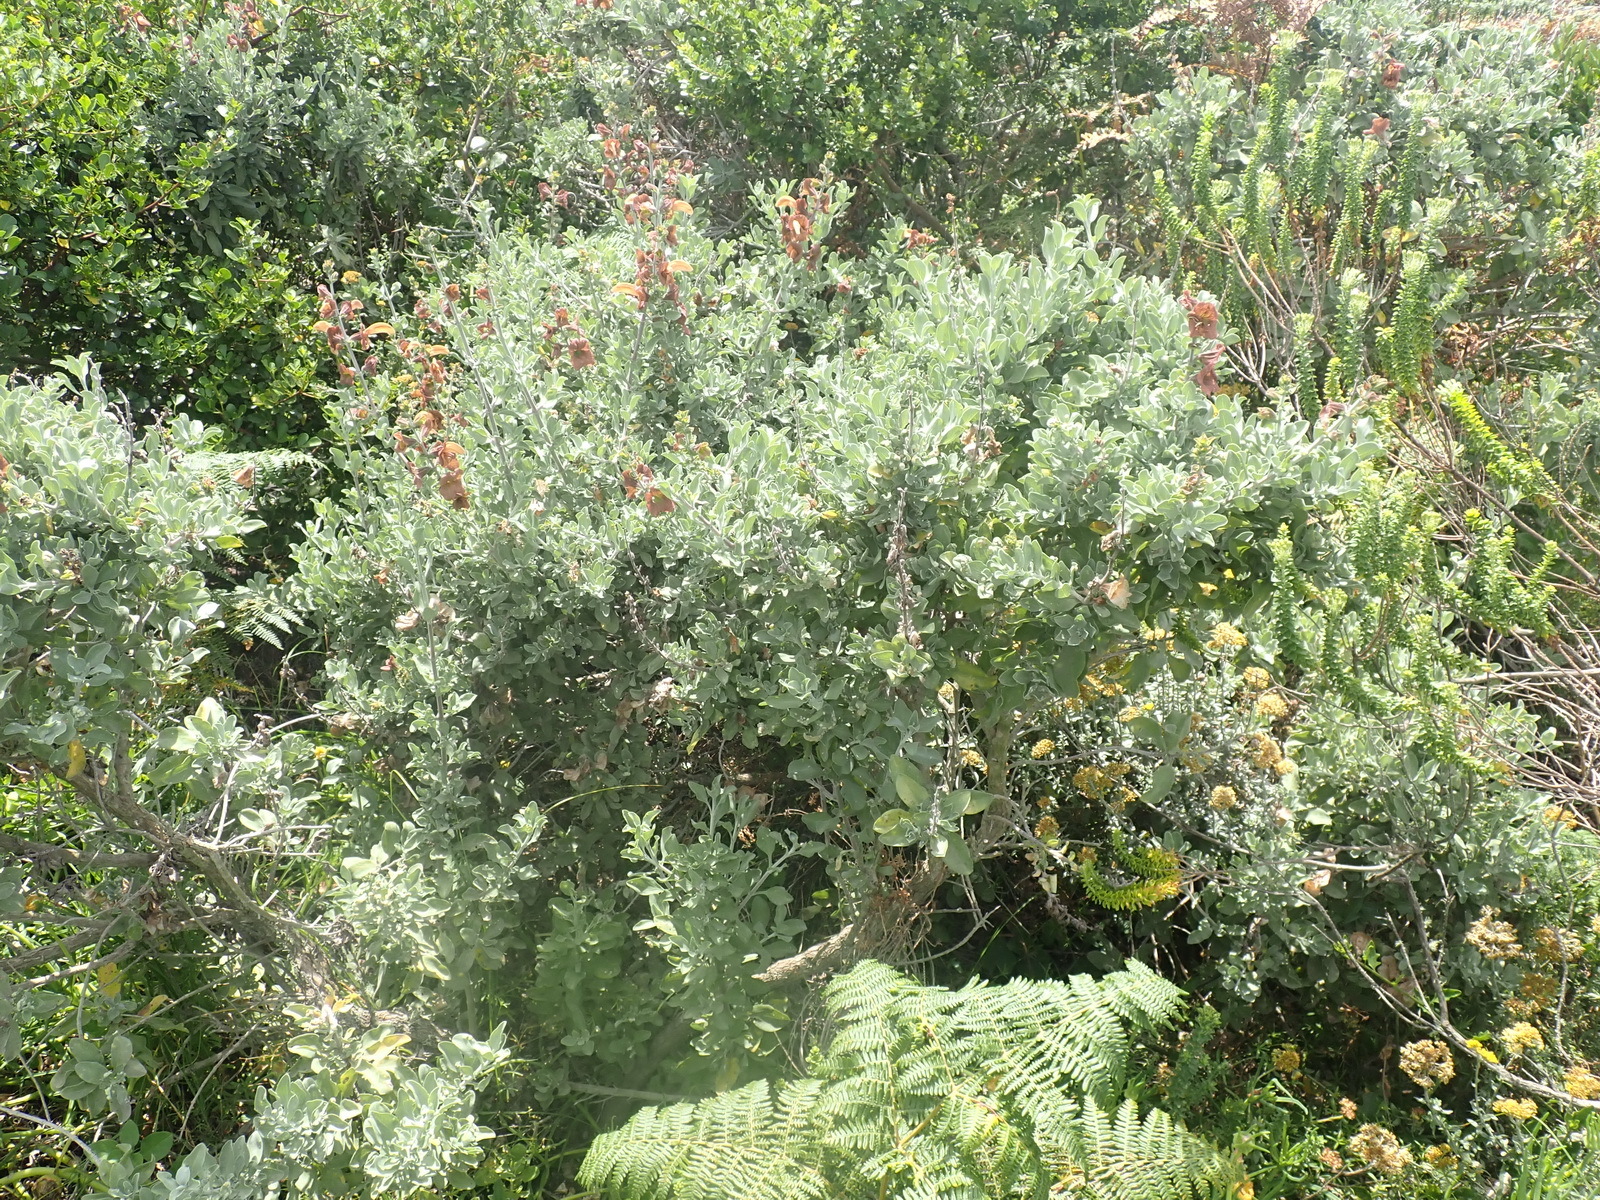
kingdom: Plantae
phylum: Tracheophyta
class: Magnoliopsida
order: Lamiales
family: Lamiaceae
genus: Salvia
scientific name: Salvia aurea
